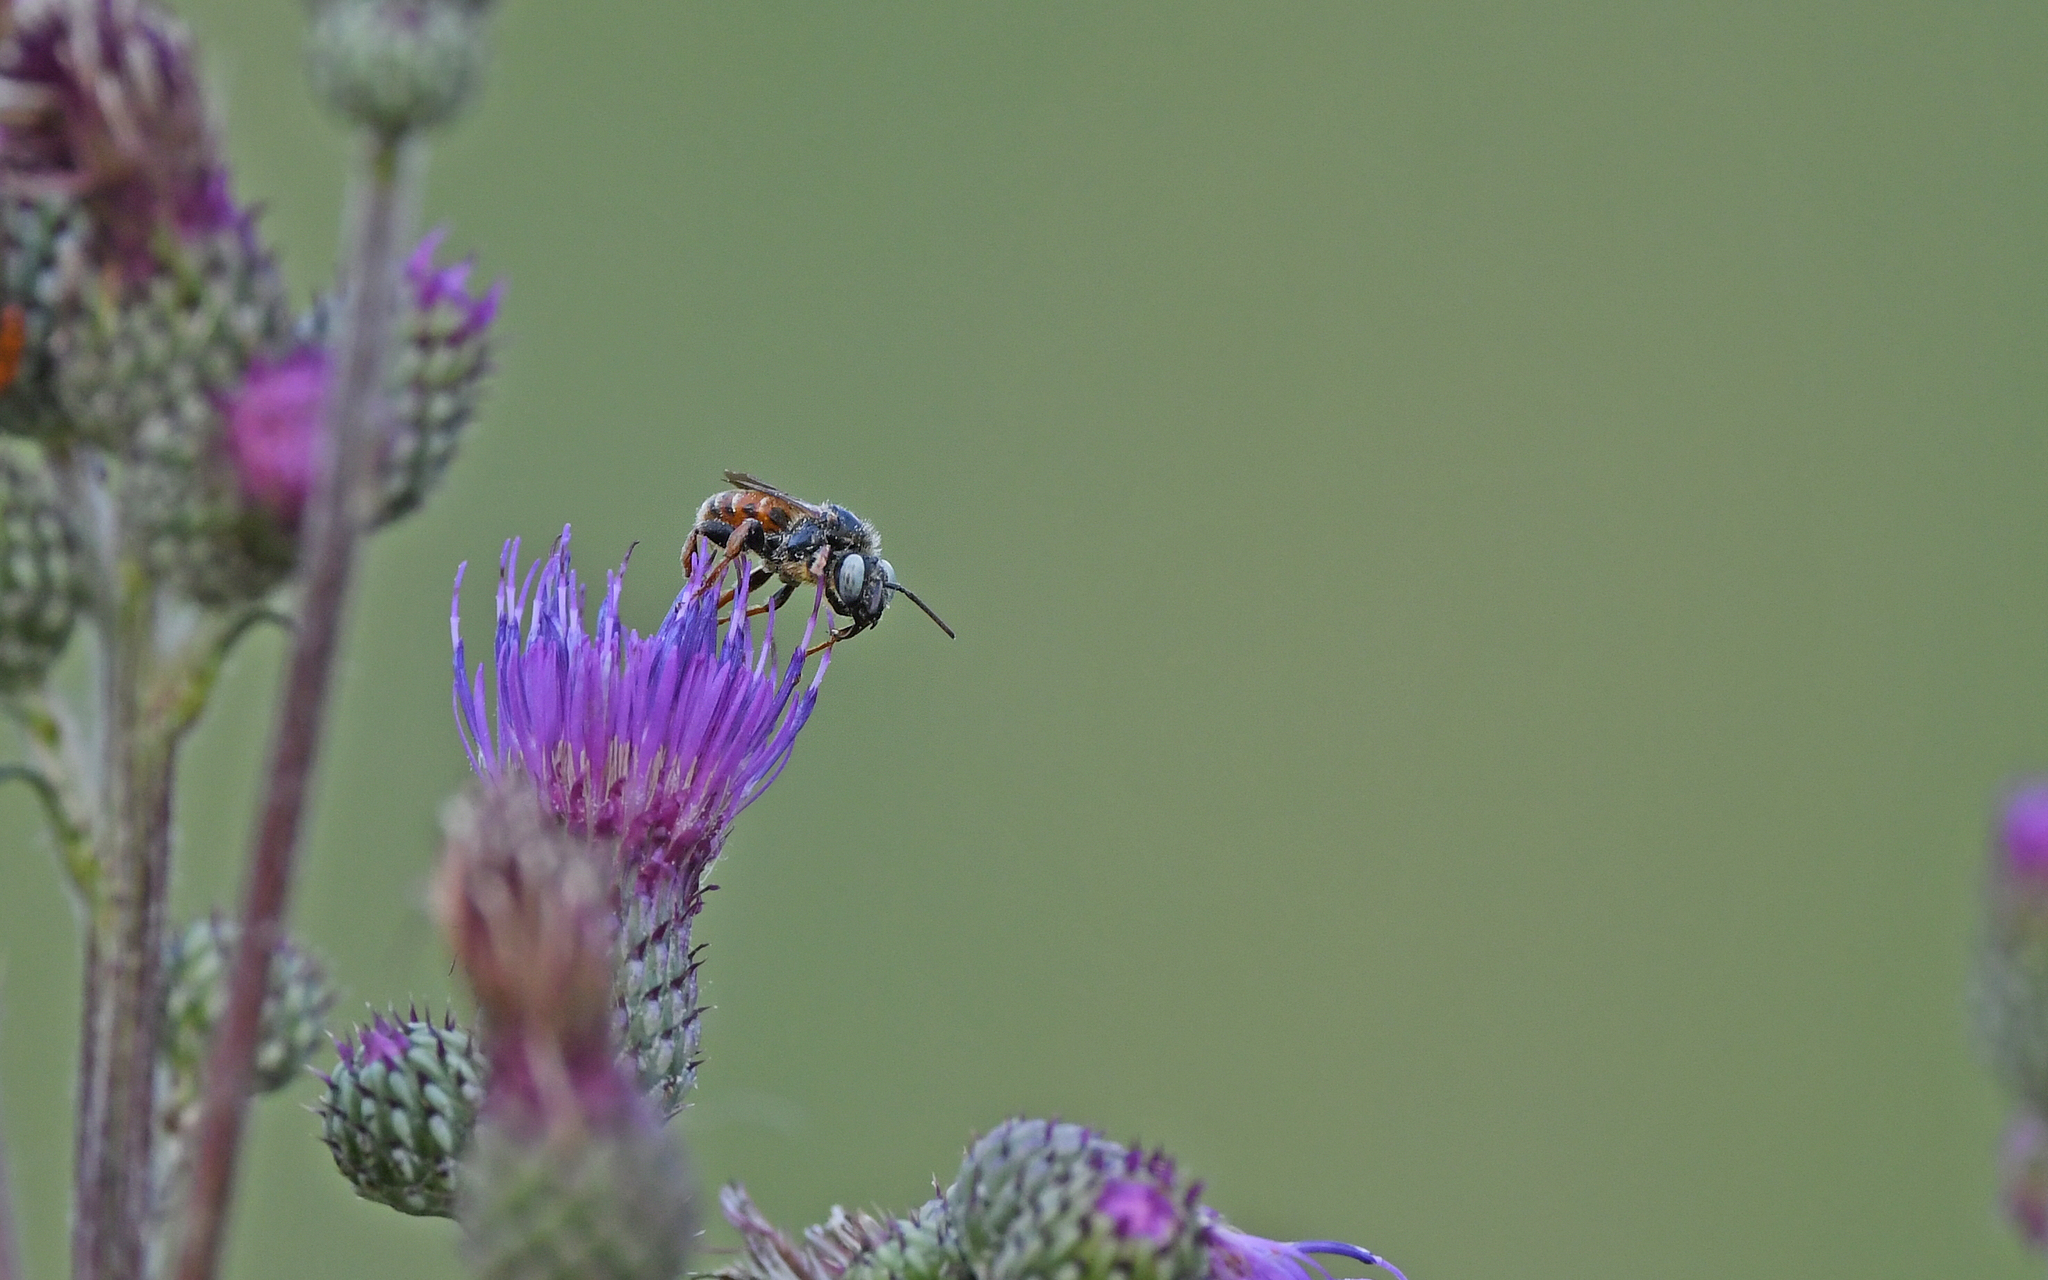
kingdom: Animalia
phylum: Arthropoda
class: Insecta
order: Hymenoptera
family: Apidae
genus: Epeoloides
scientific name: Epeoloides coecutiens
